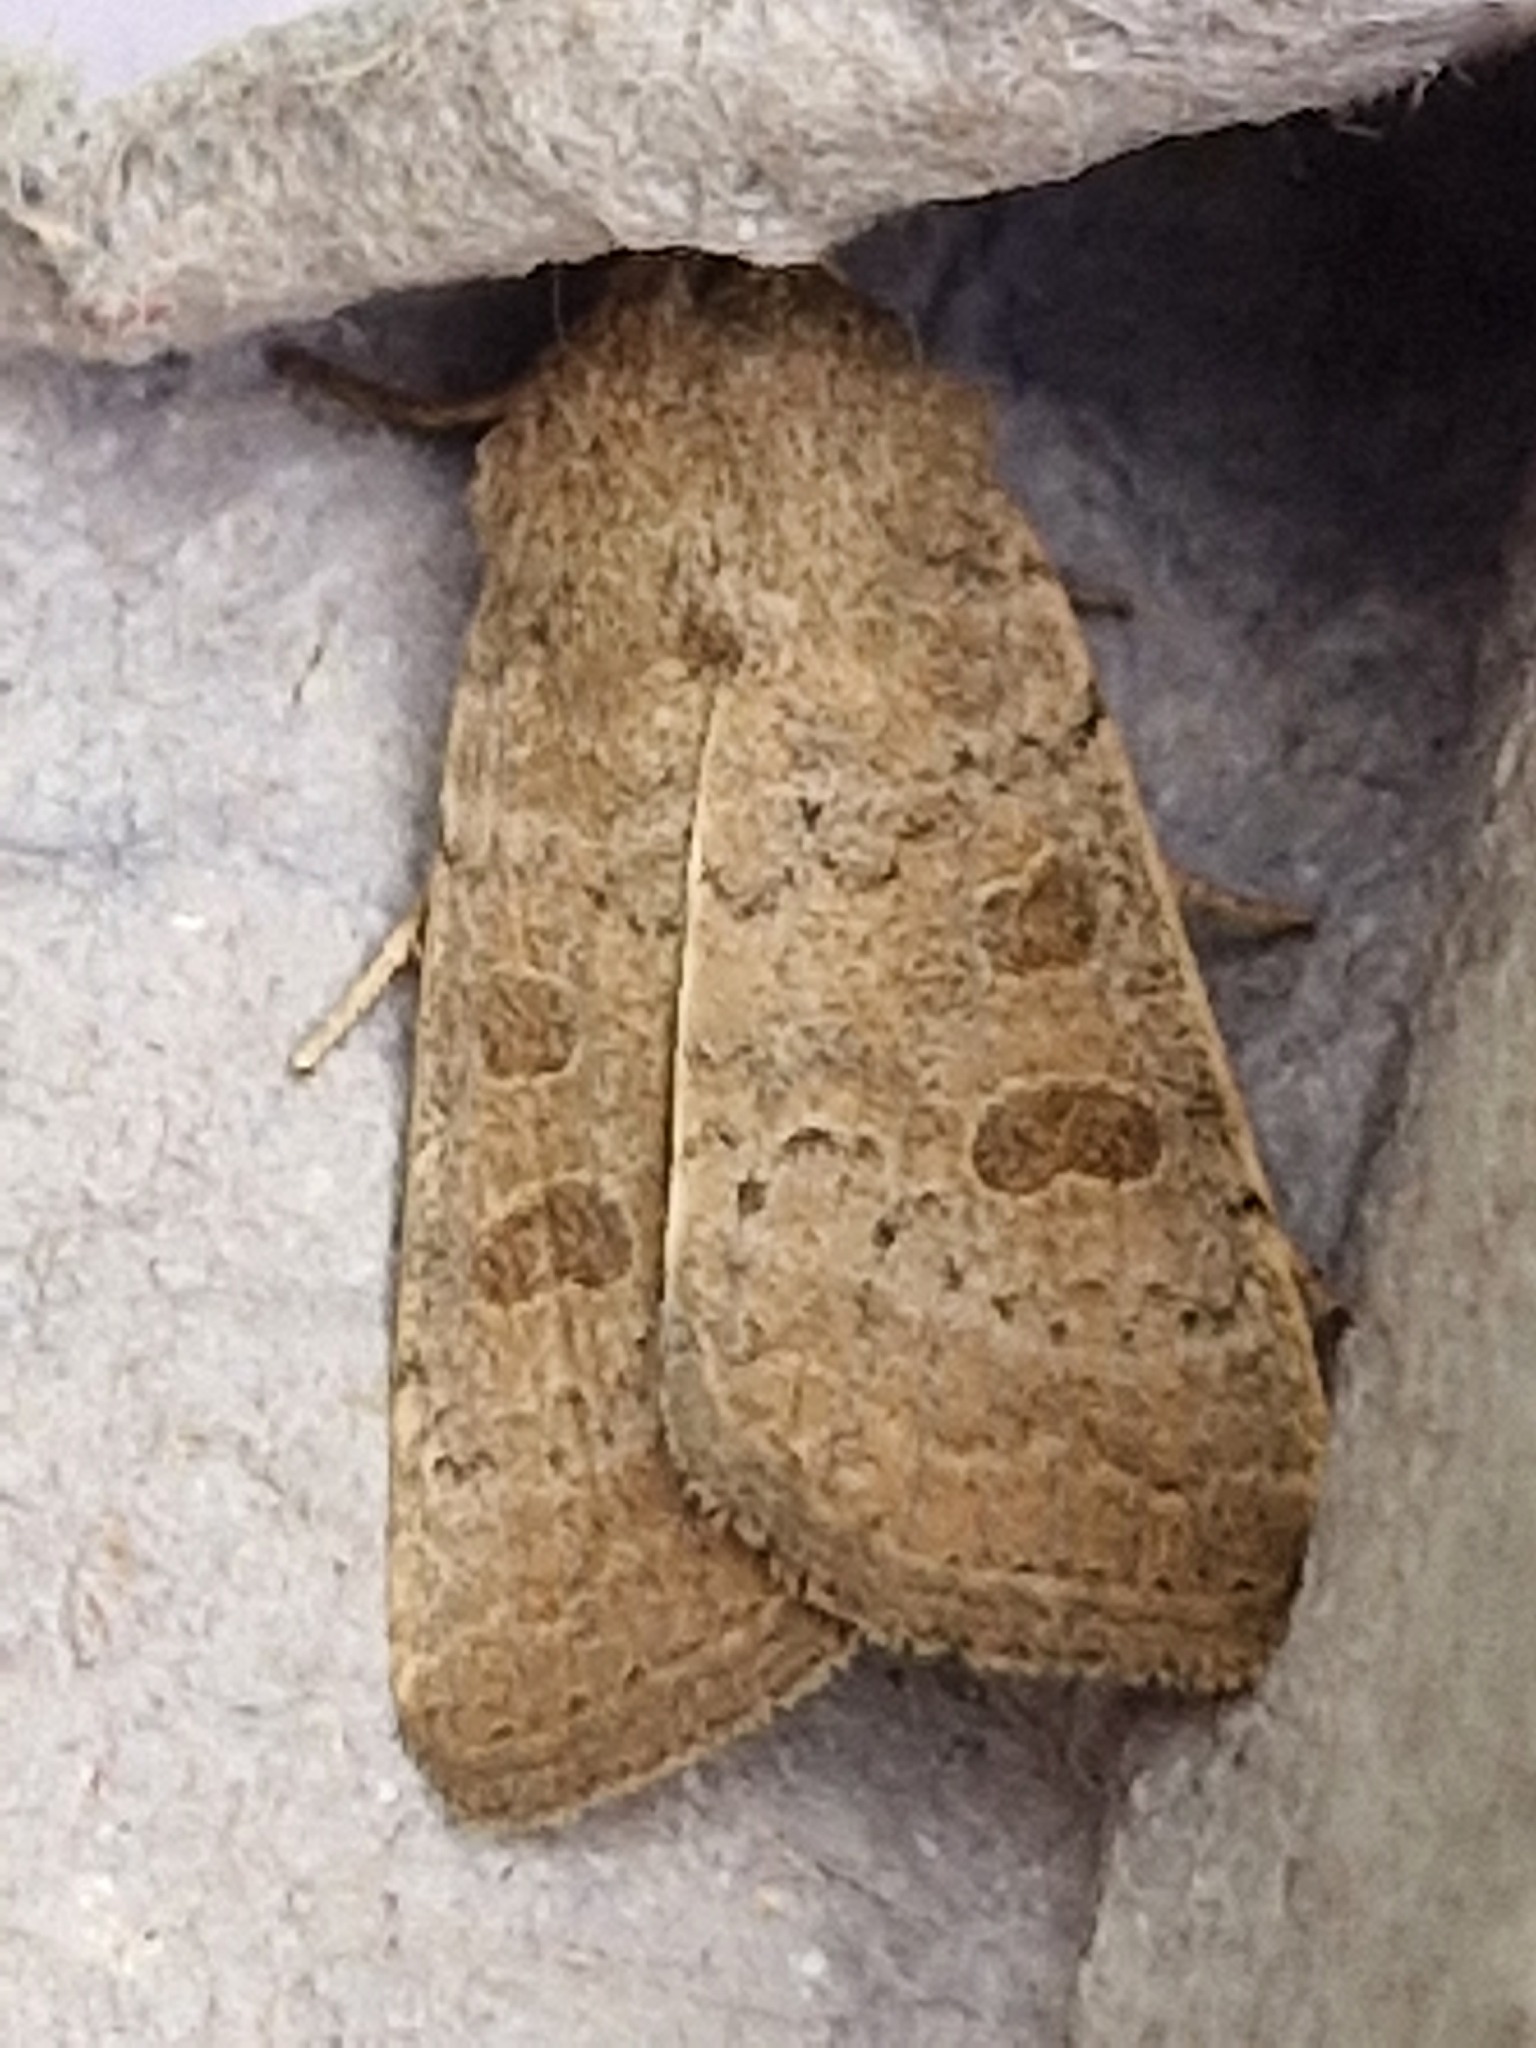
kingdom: Animalia
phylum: Arthropoda
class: Insecta
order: Lepidoptera
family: Noctuidae
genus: Hoplodrina
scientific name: Hoplodrina ambigua
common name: Vine's rustic
